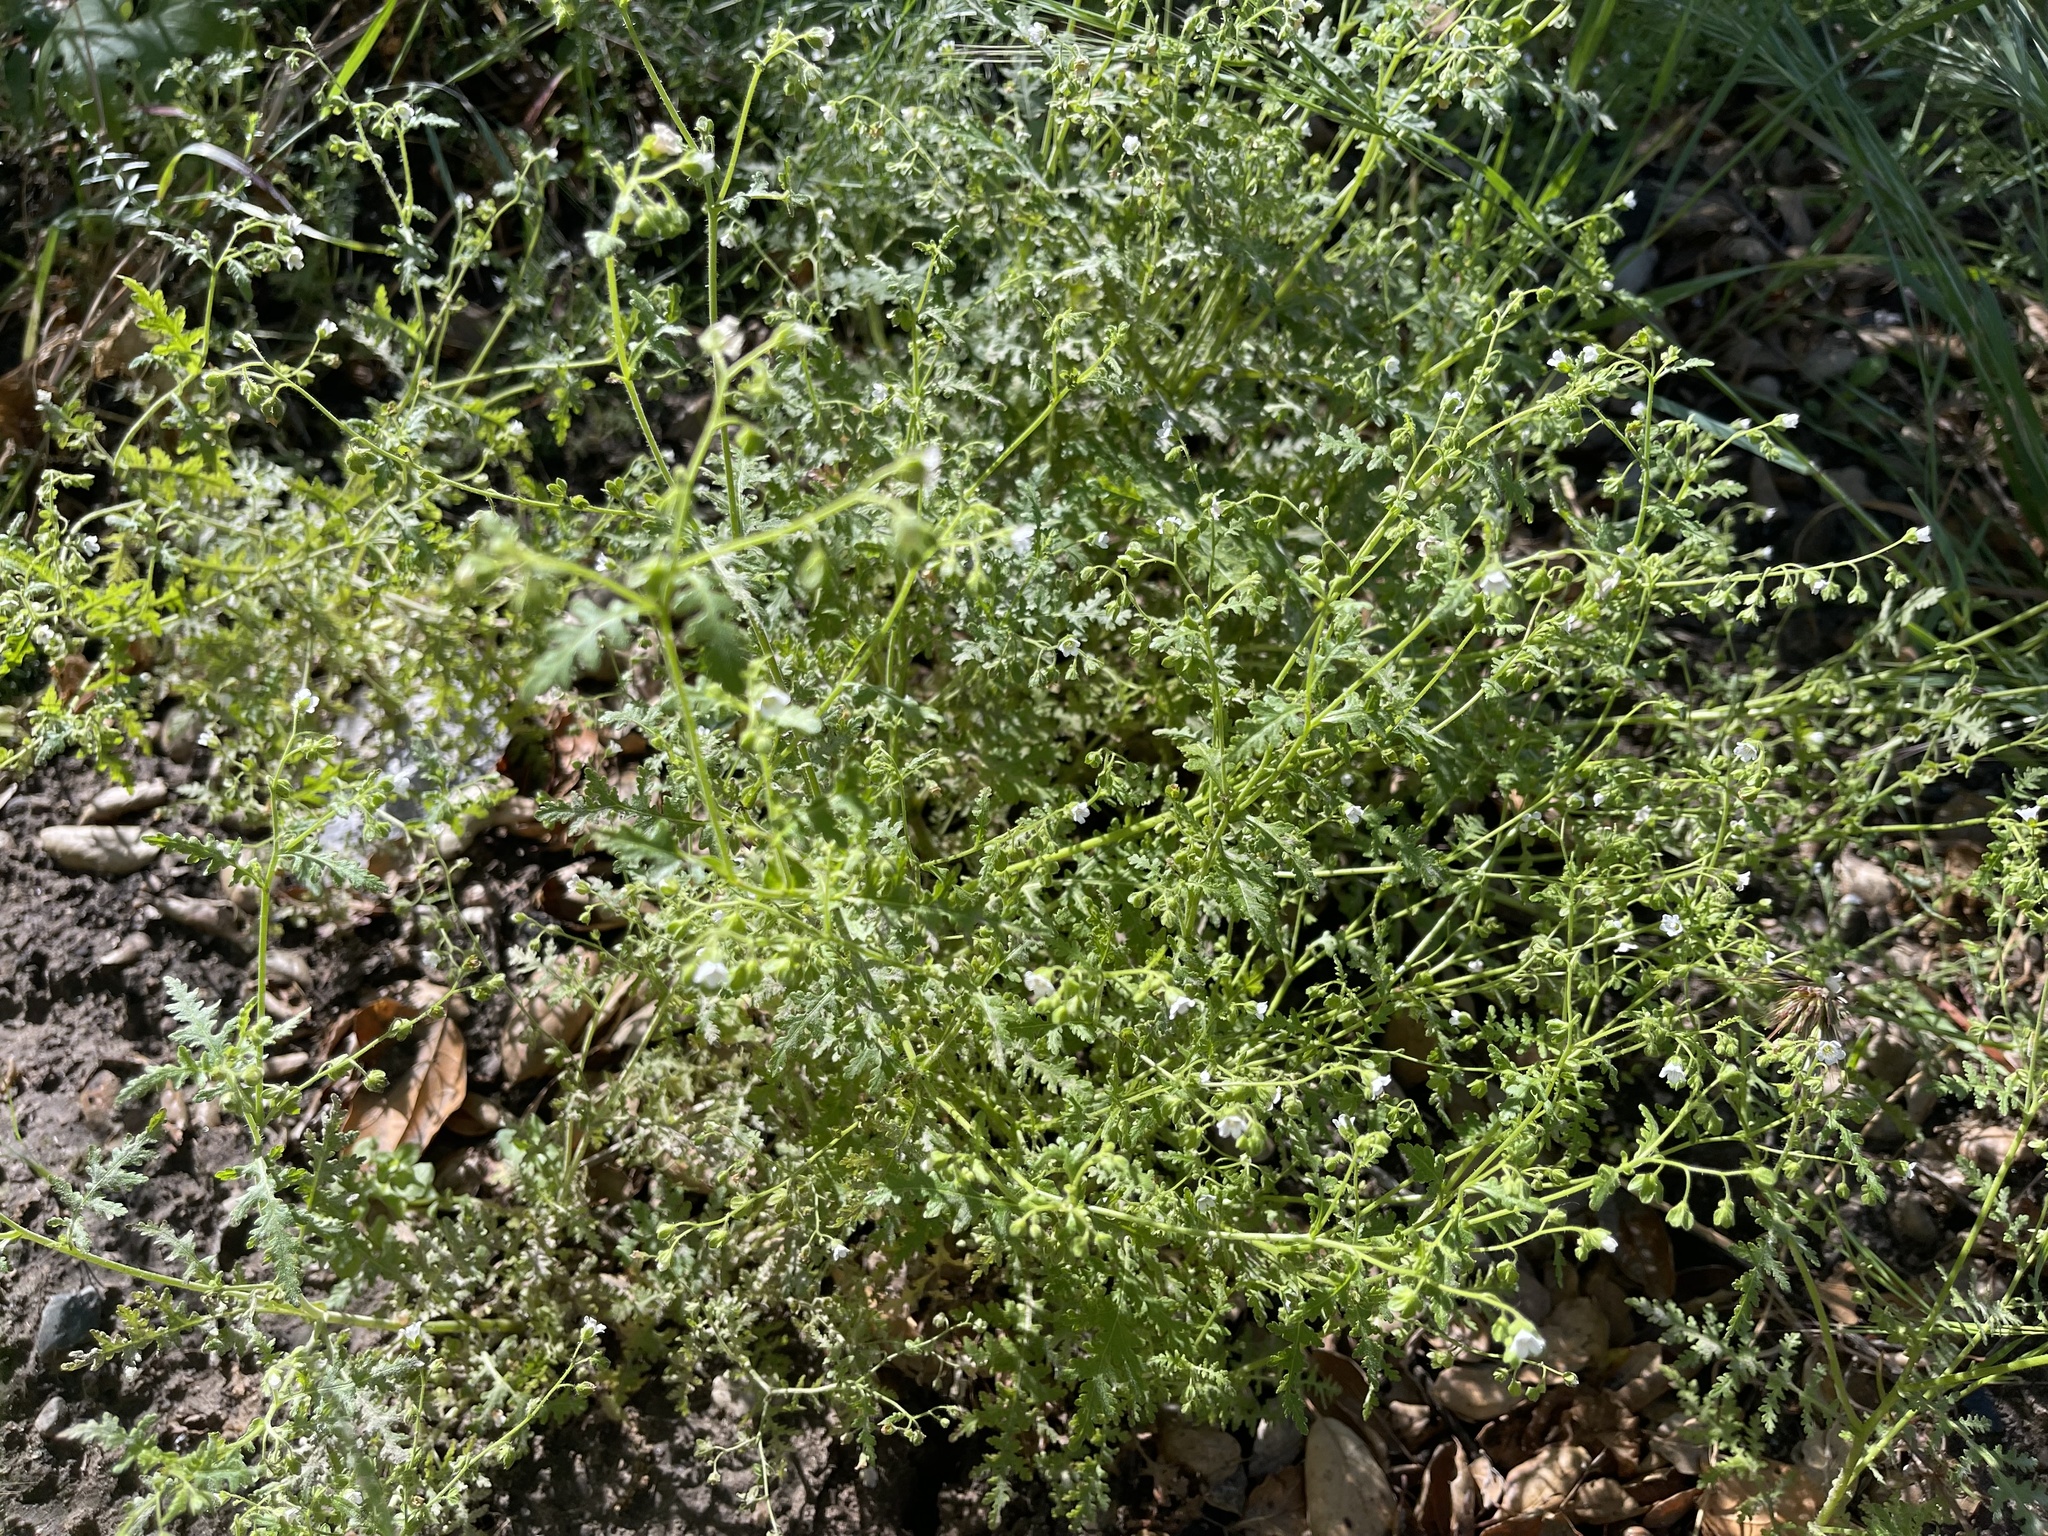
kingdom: Plantae
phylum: Tracheophyta
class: Magnoliopsida
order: Boraginales
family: Hydrophyllaceae
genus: Eucrypta
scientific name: Eucrypta chrysanthemifolia
